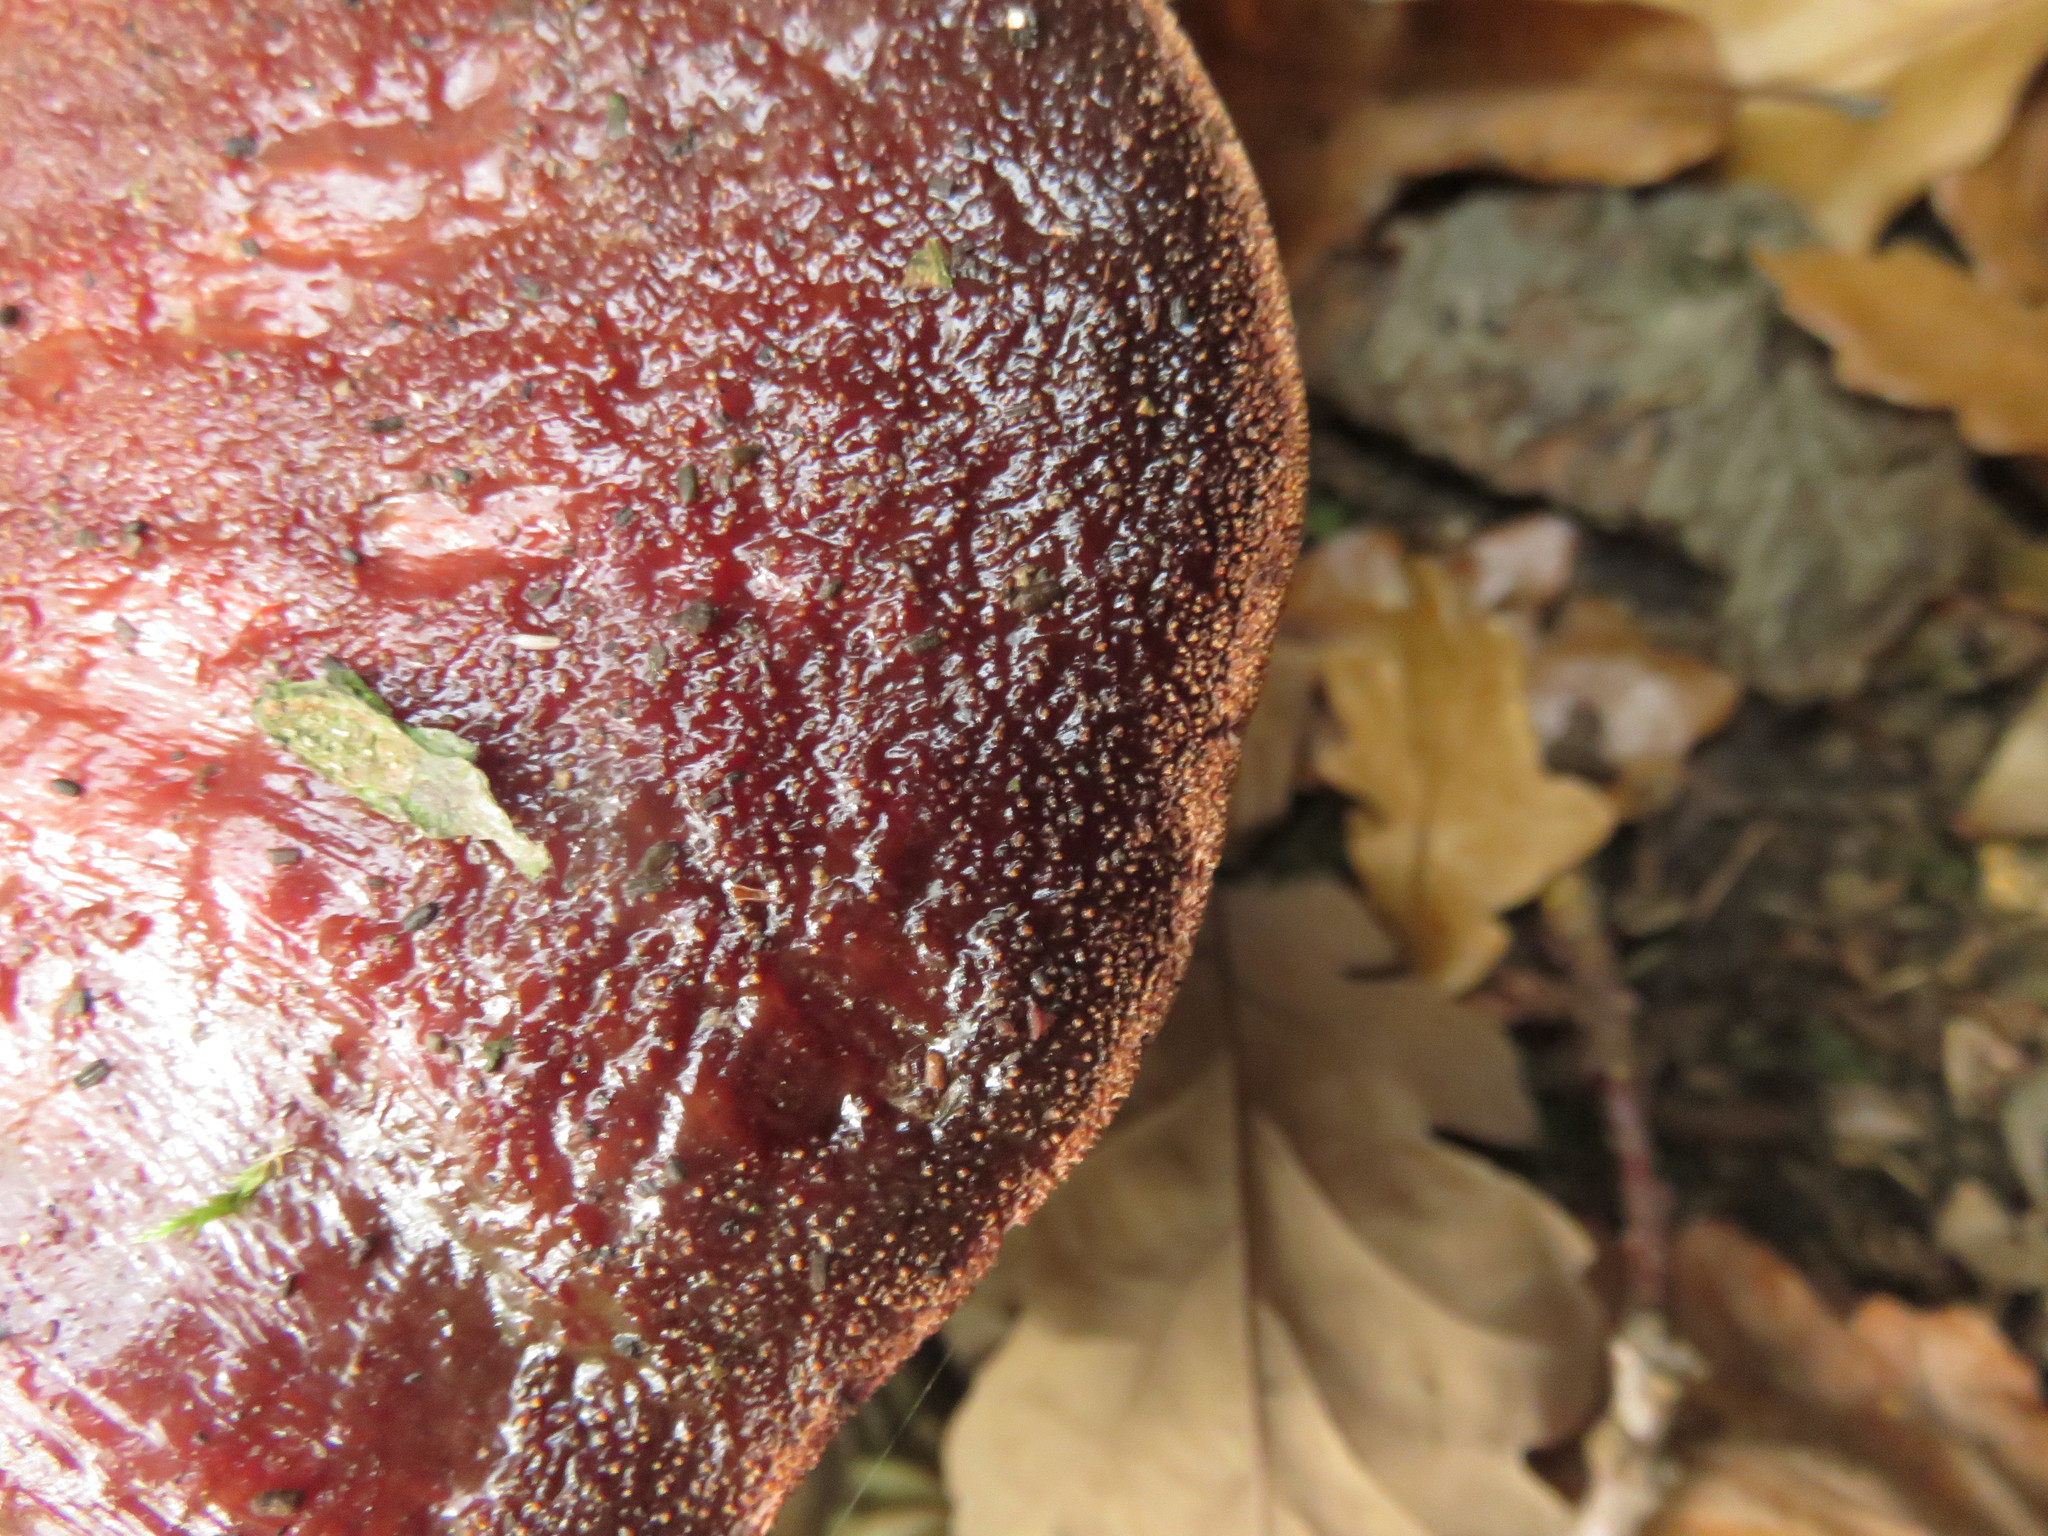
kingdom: Fungi
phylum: Basidiomycota
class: Agaricomycetes
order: Agaricales
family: Fistulinaceae
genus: Fistulina
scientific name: Fistulina hepatica
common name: Beef-steak fungus
